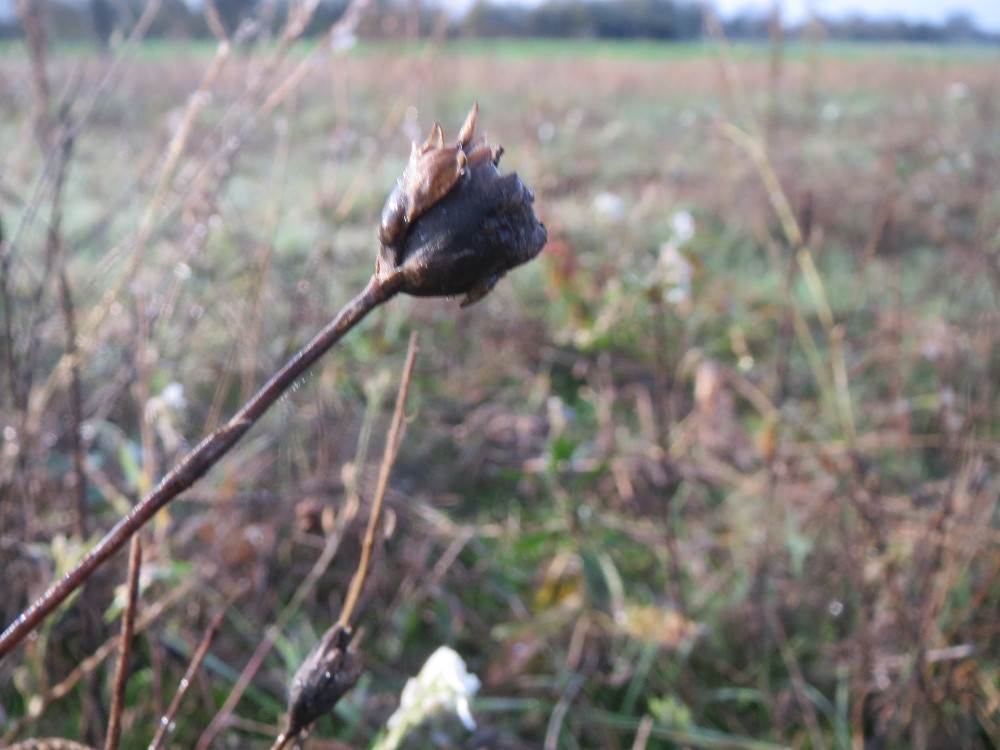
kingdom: Plantae
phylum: Tracheophyta
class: Magnoliopsida
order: Caryophyllales
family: Caryophyllaceae
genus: Petrorhagia
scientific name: Petrorhagia prolifera
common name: Proliferous pink
